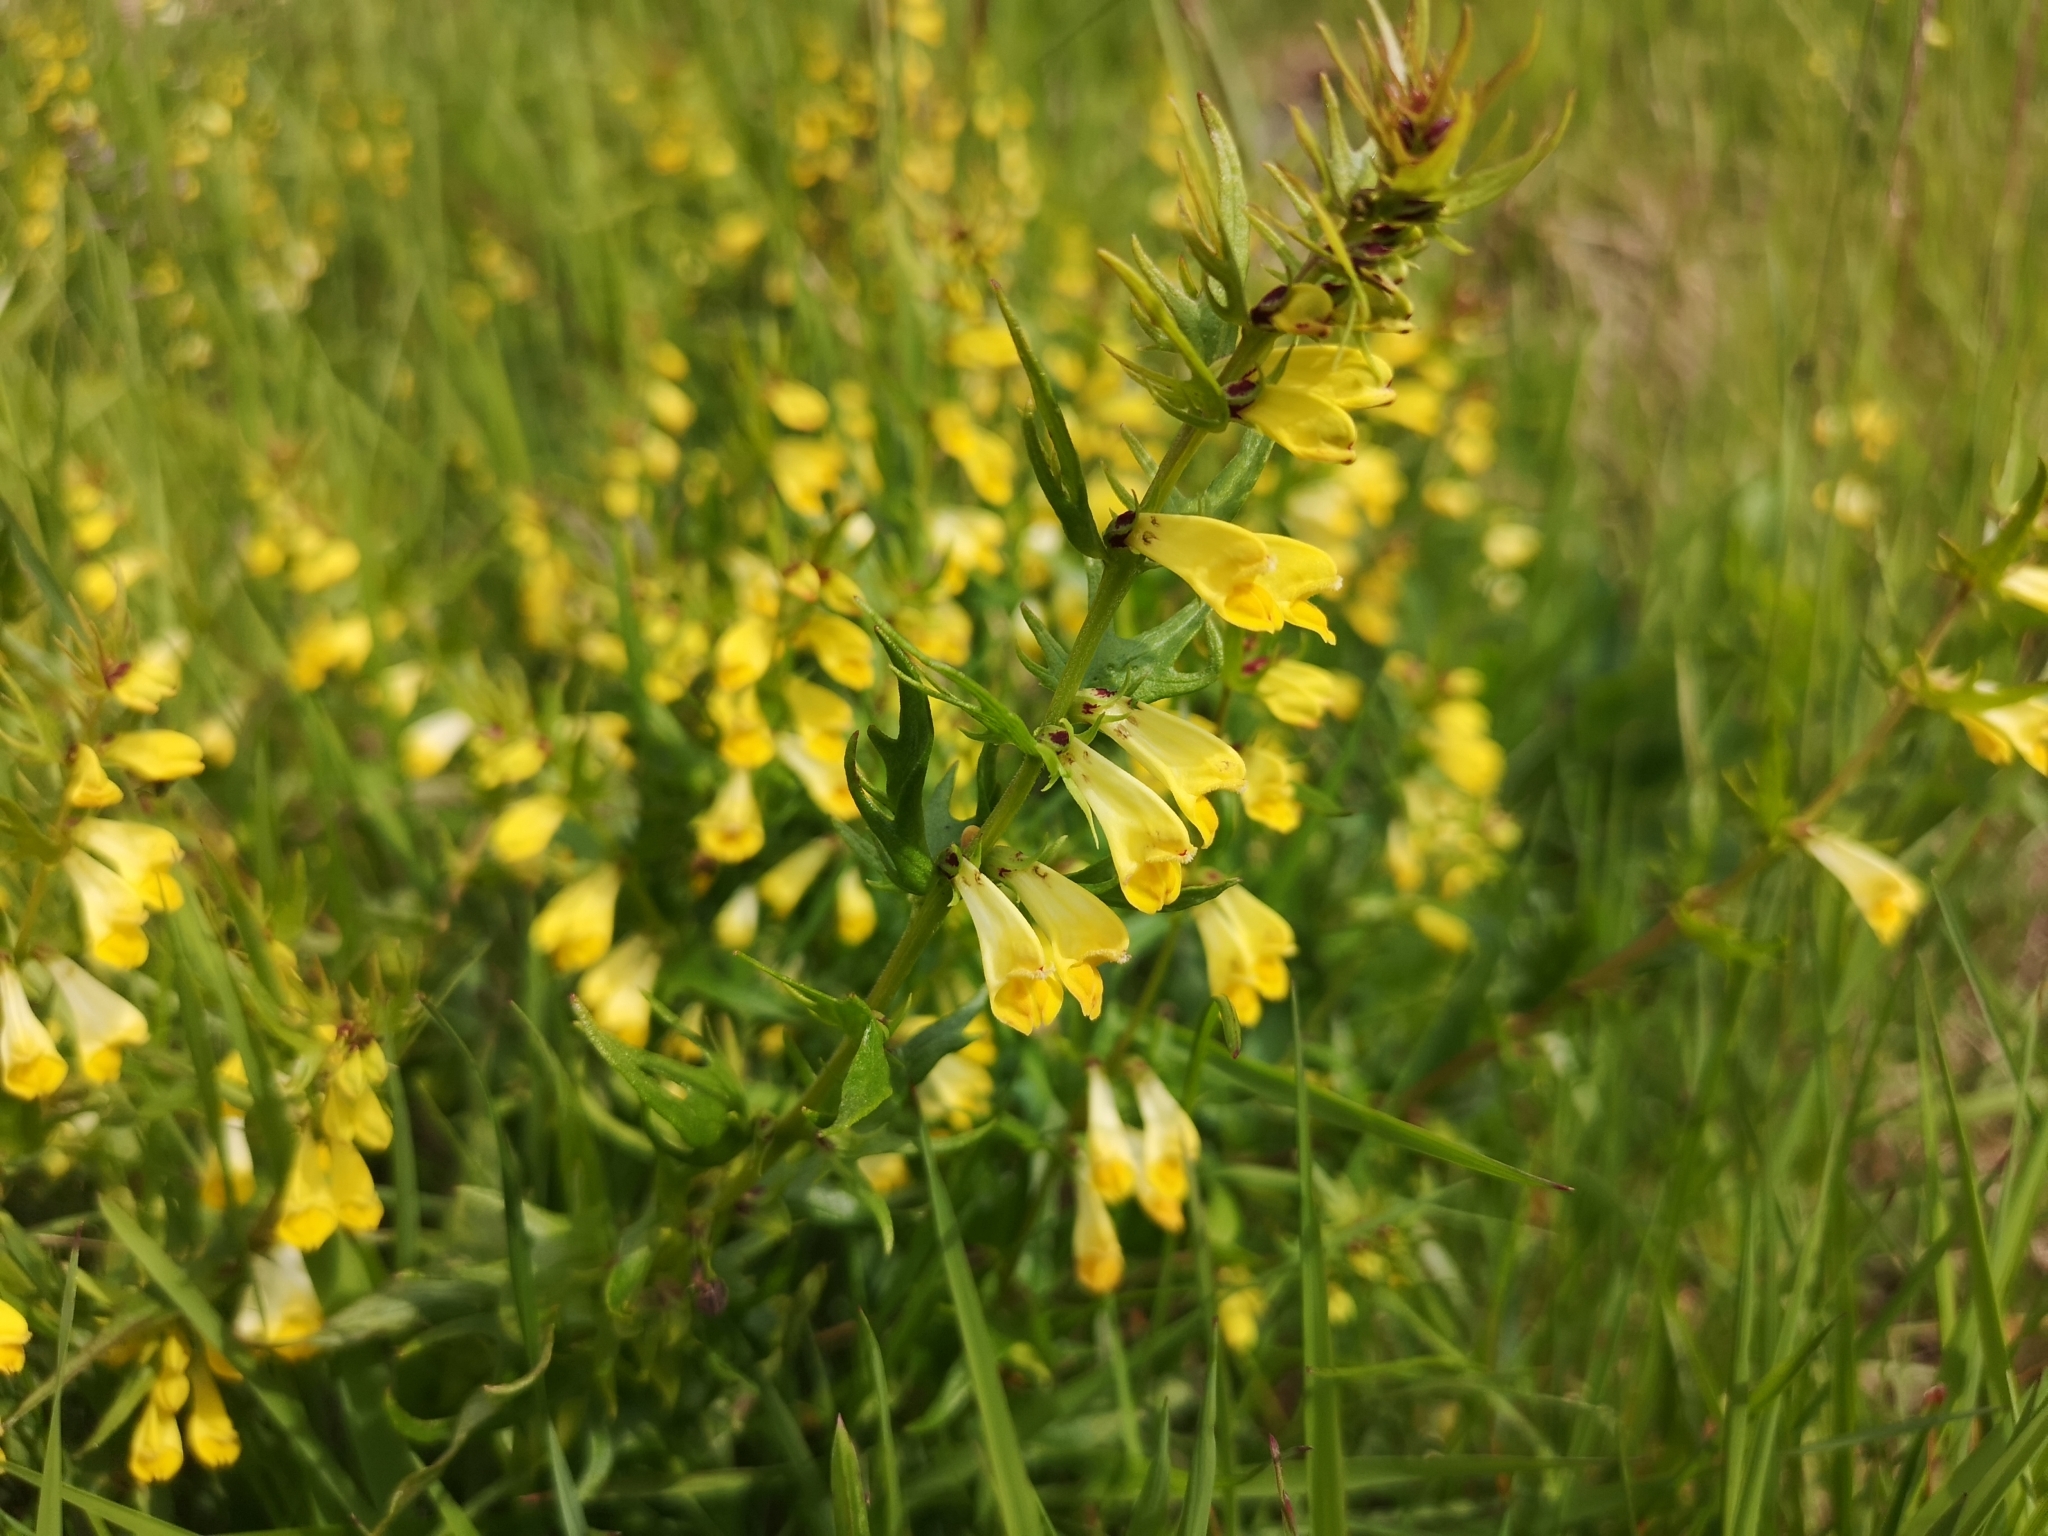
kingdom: Plantae
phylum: Tracheophyta
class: Magnoliopsida
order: Lamiales
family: Orobanchaceae
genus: Melampyrum
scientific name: Melampyrum pratense
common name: Common cow-wheat
